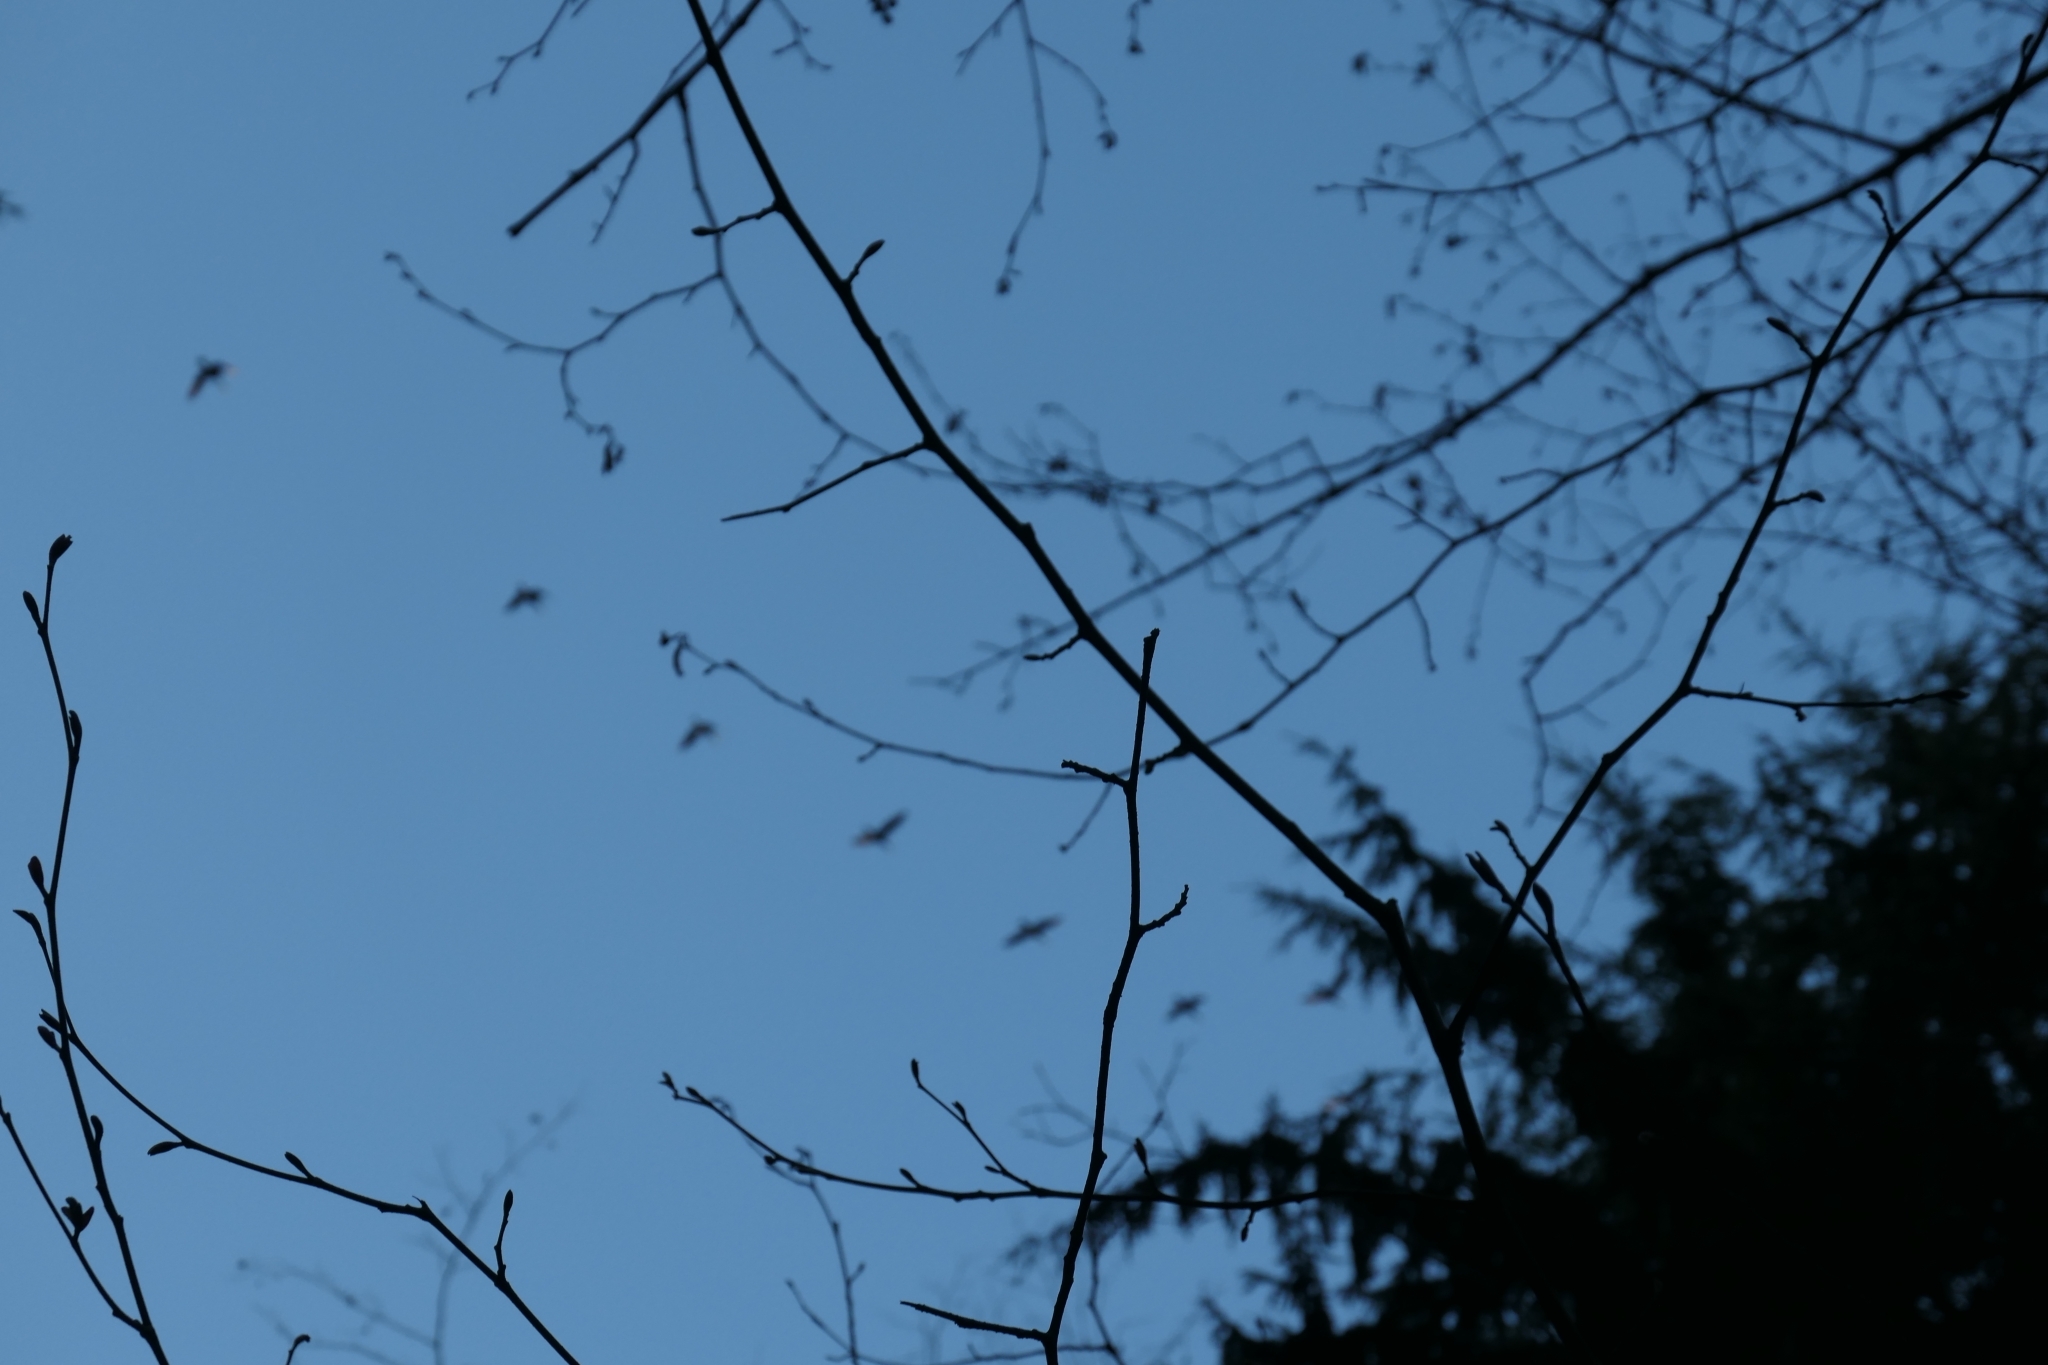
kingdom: Animalia
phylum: Chordata
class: Aves
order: Anseriformes
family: Anatidae
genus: Branta
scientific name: Branta canadensis
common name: Canada goose
